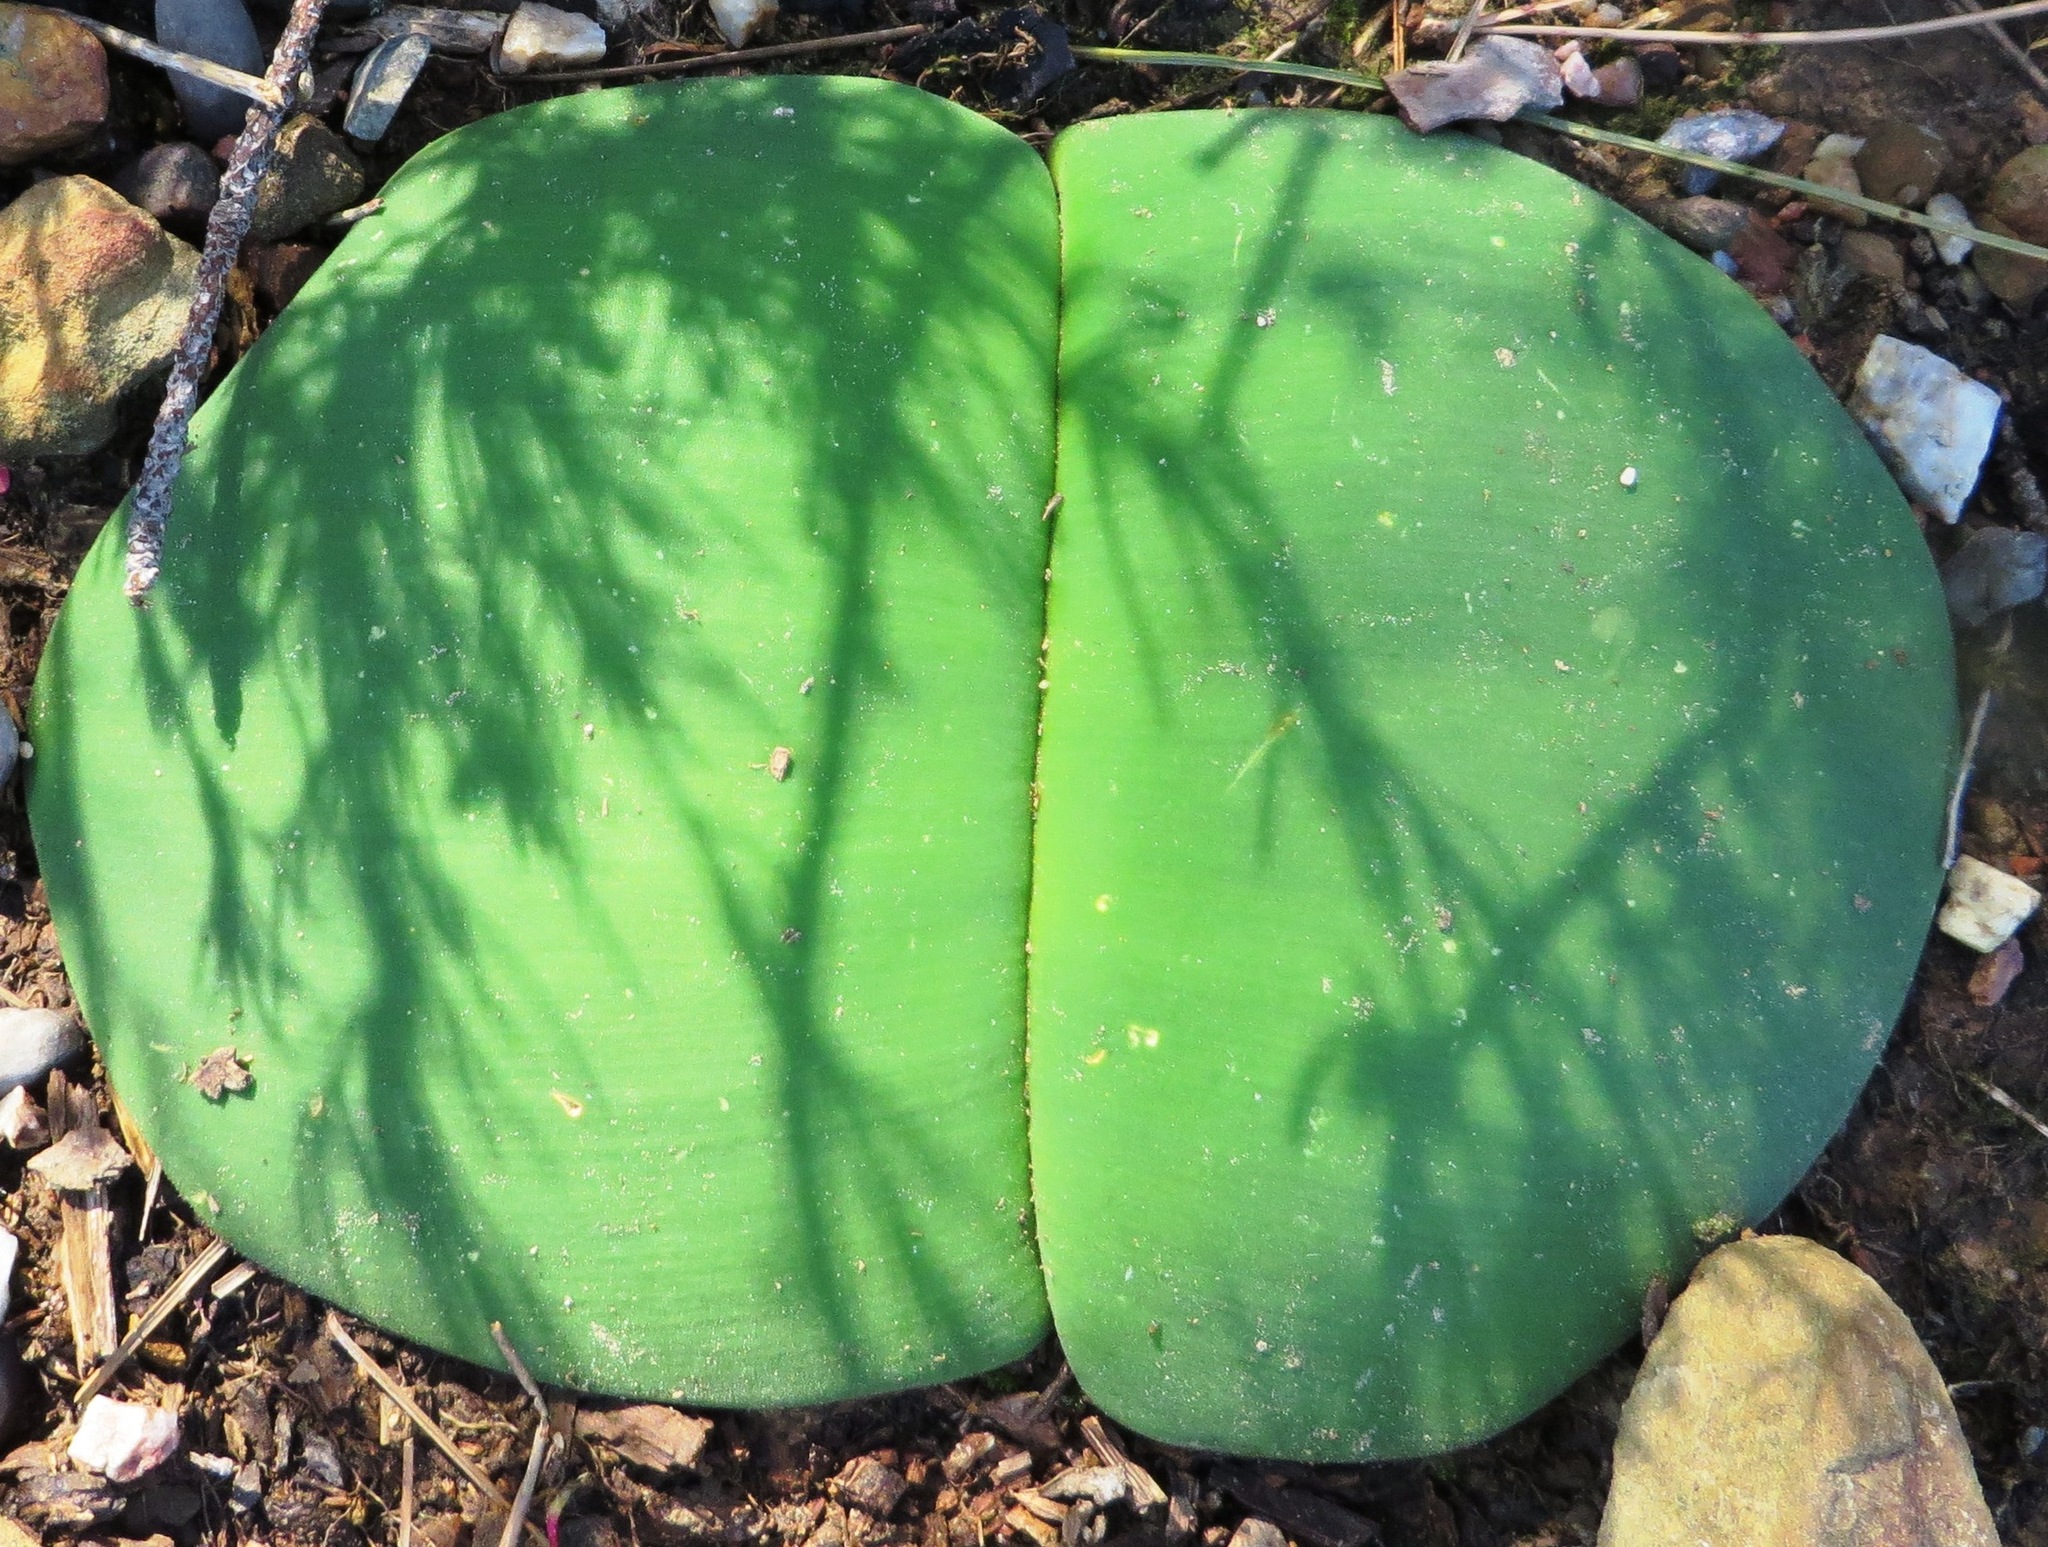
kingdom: Plantae
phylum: Tracheophyta
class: Liliopsida
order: Asparagales
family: Amaryllidaceae
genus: Haemanthus
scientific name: Haemanthus sanguineus
